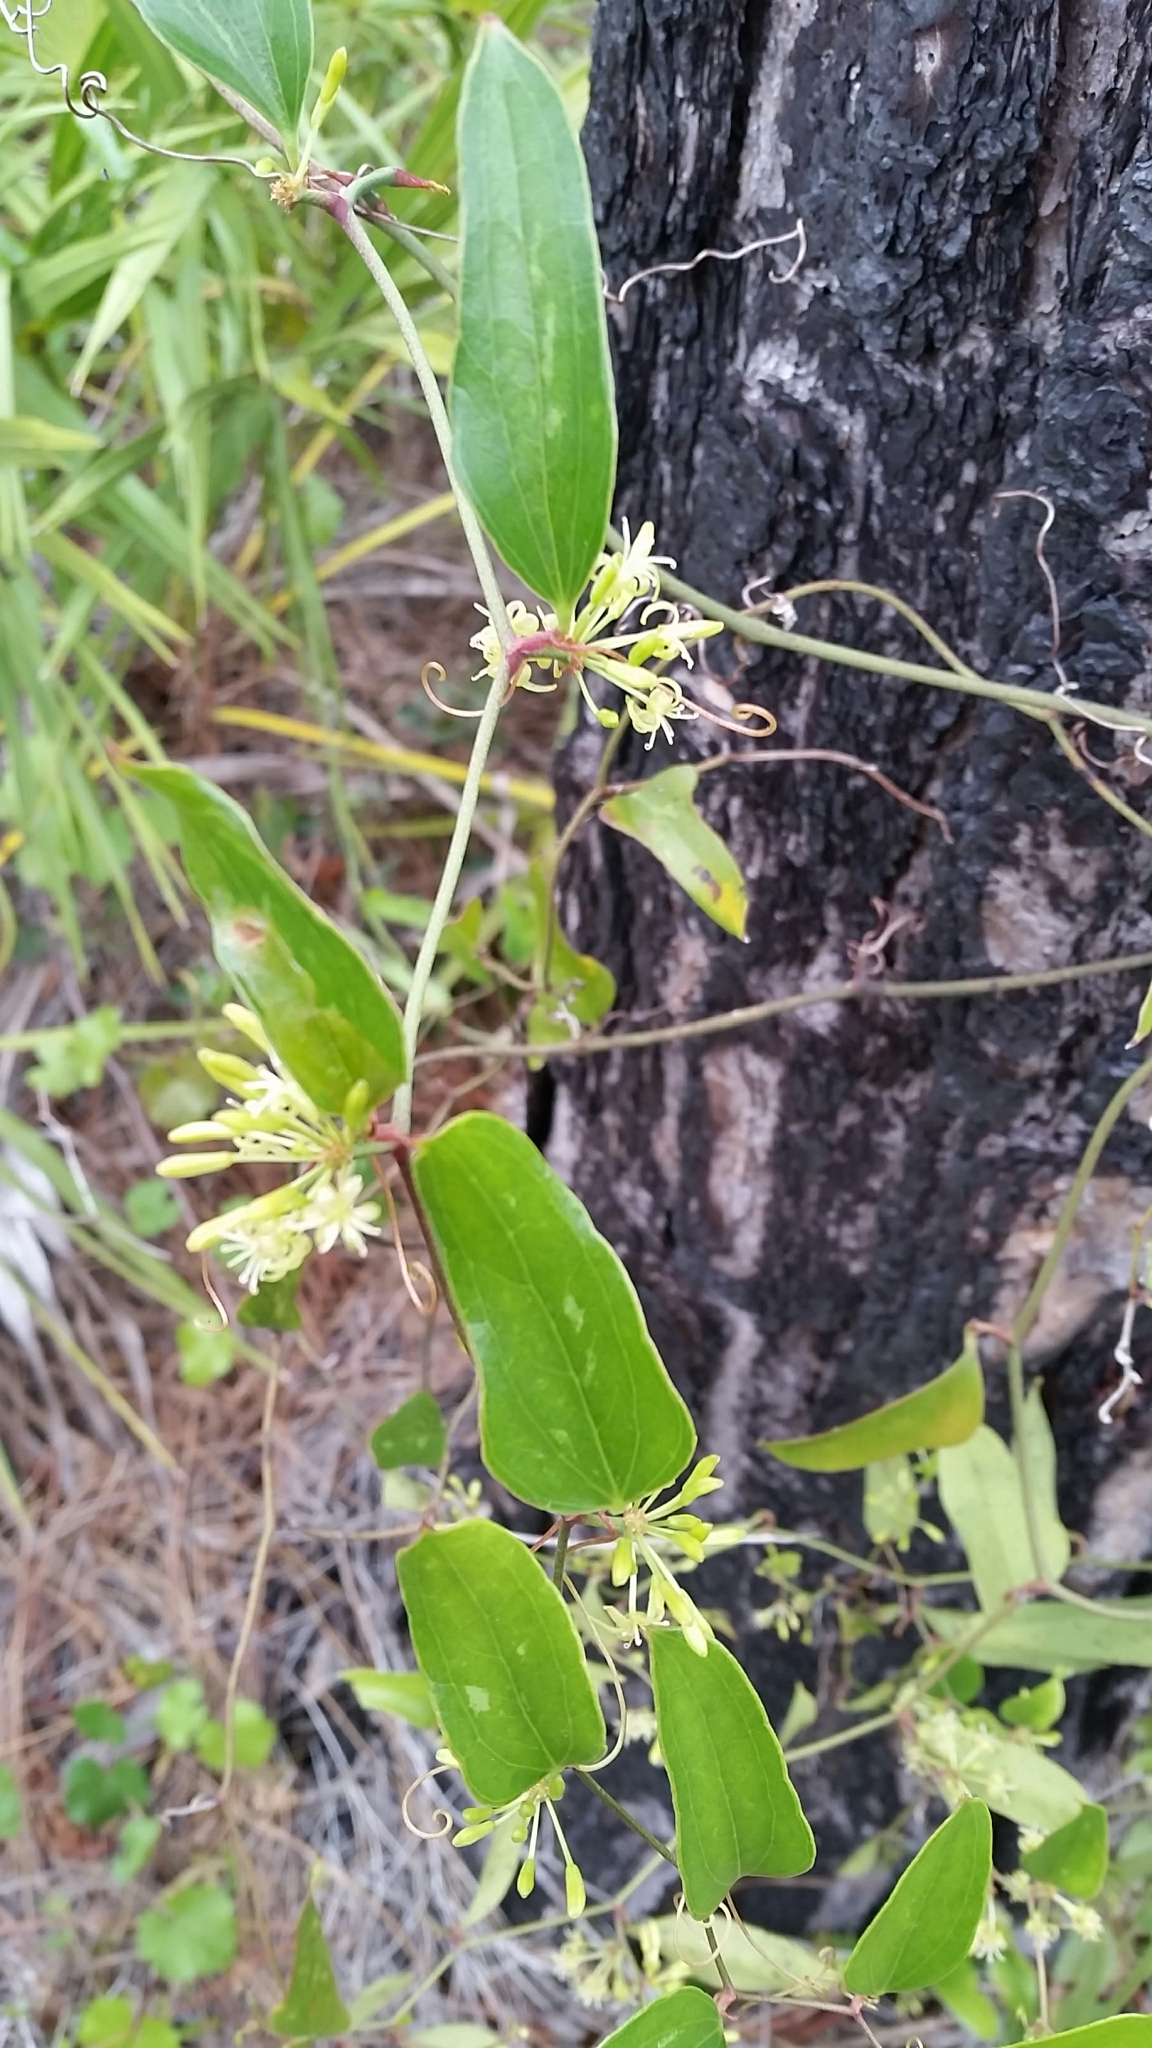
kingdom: Plantae
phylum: Tracheophyta
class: Liliopsida
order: Liliales
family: Smilacaceae
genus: Smilax
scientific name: Smilax auriculata
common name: Wild bamboo
